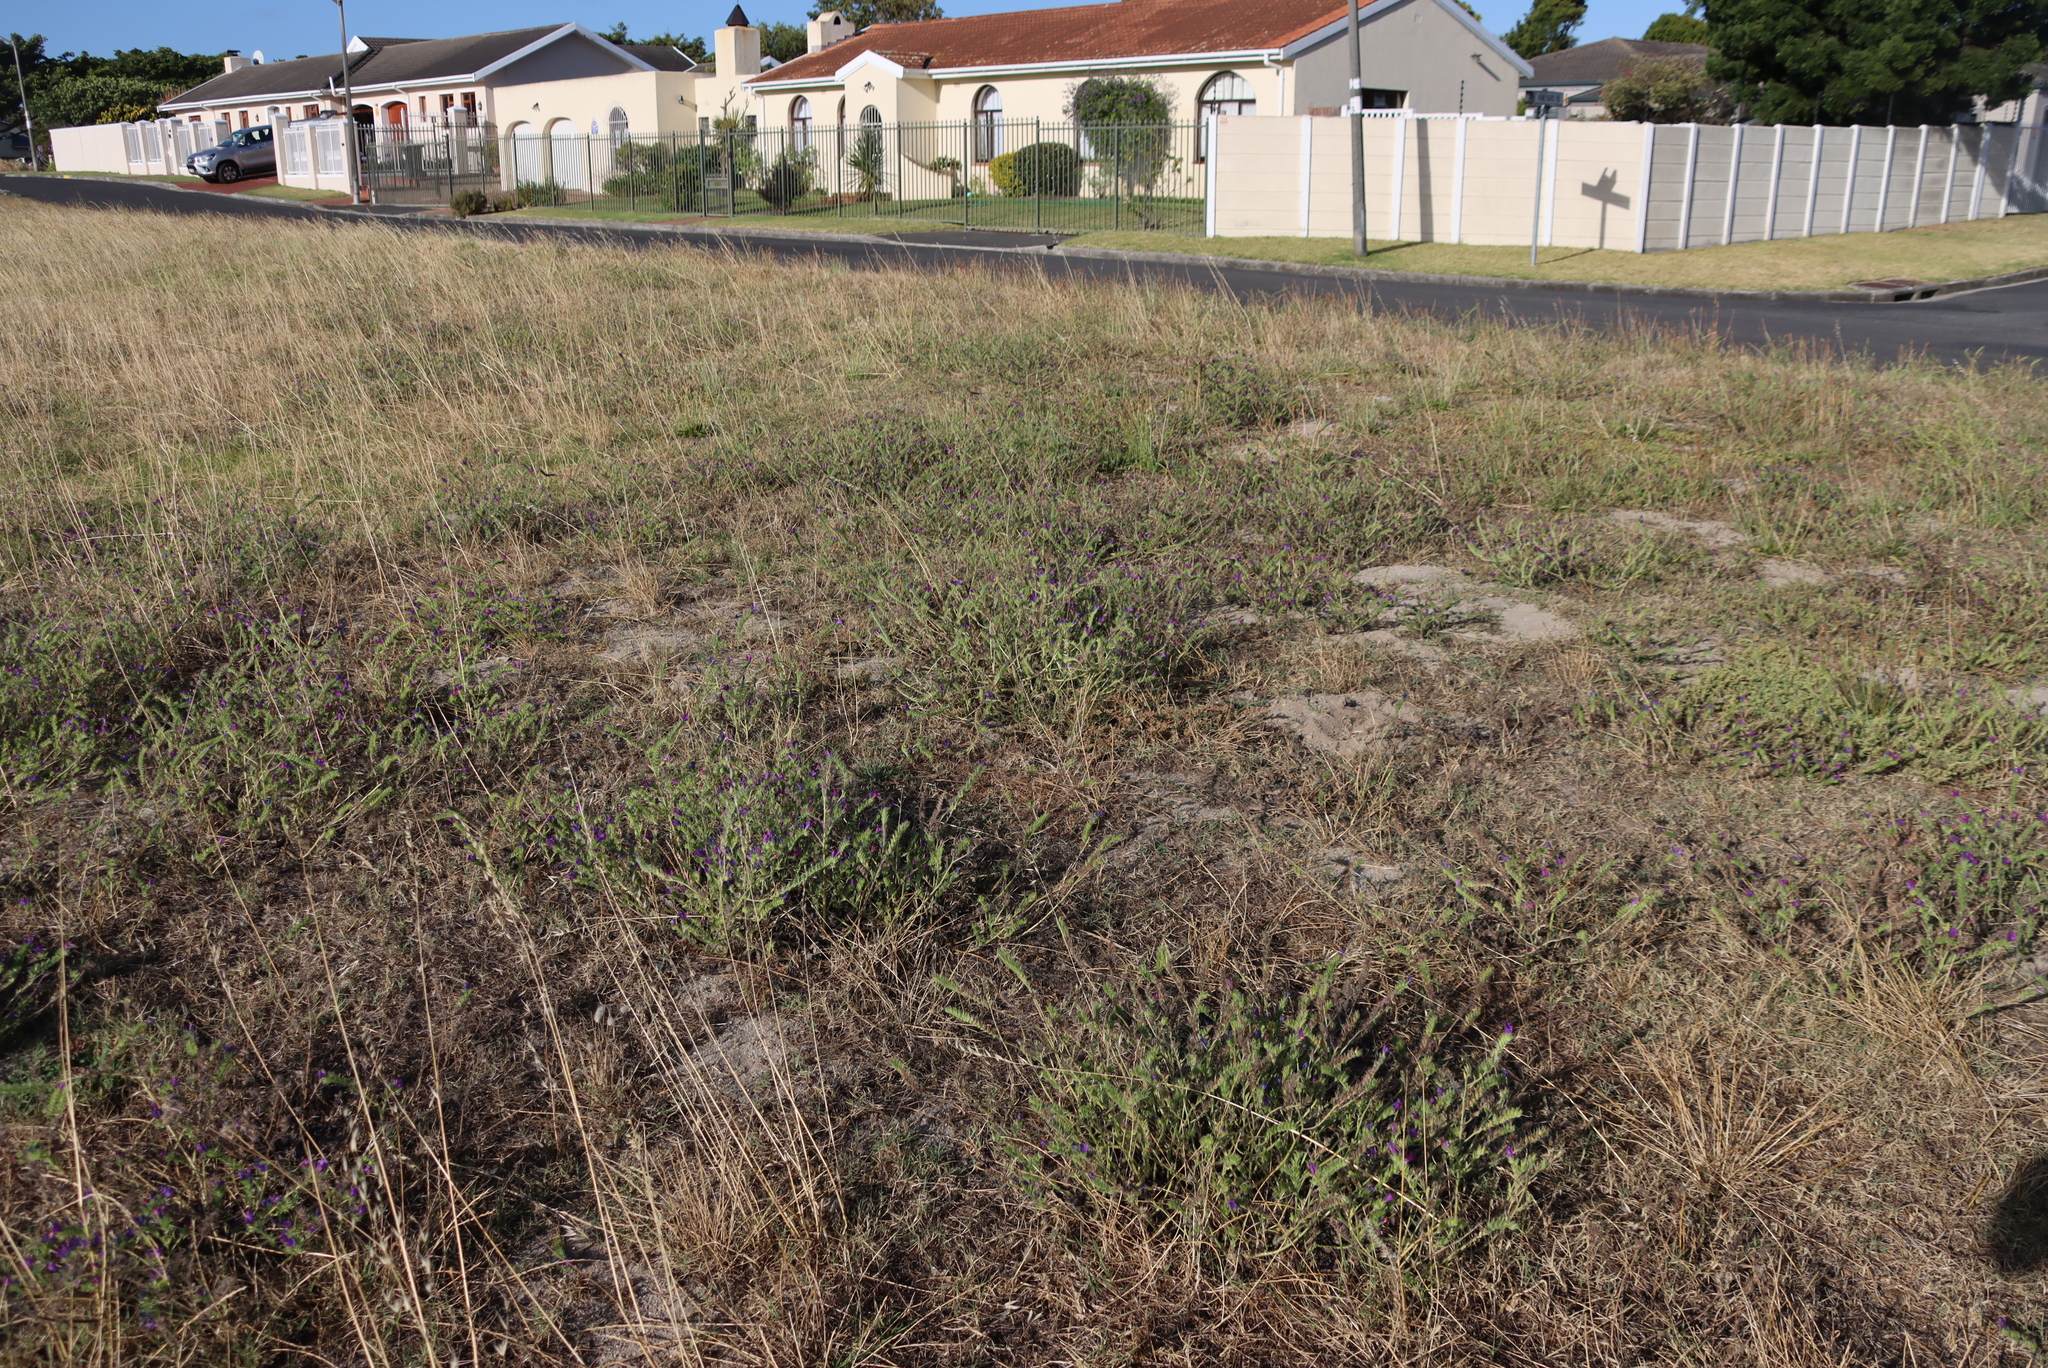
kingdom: Plantae
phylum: Tracheophyta
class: Magnoliopsida
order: Boraginales
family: Boraginaceae
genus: Echium
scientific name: Echium plantagineum
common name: Purple viper's-bugloss
